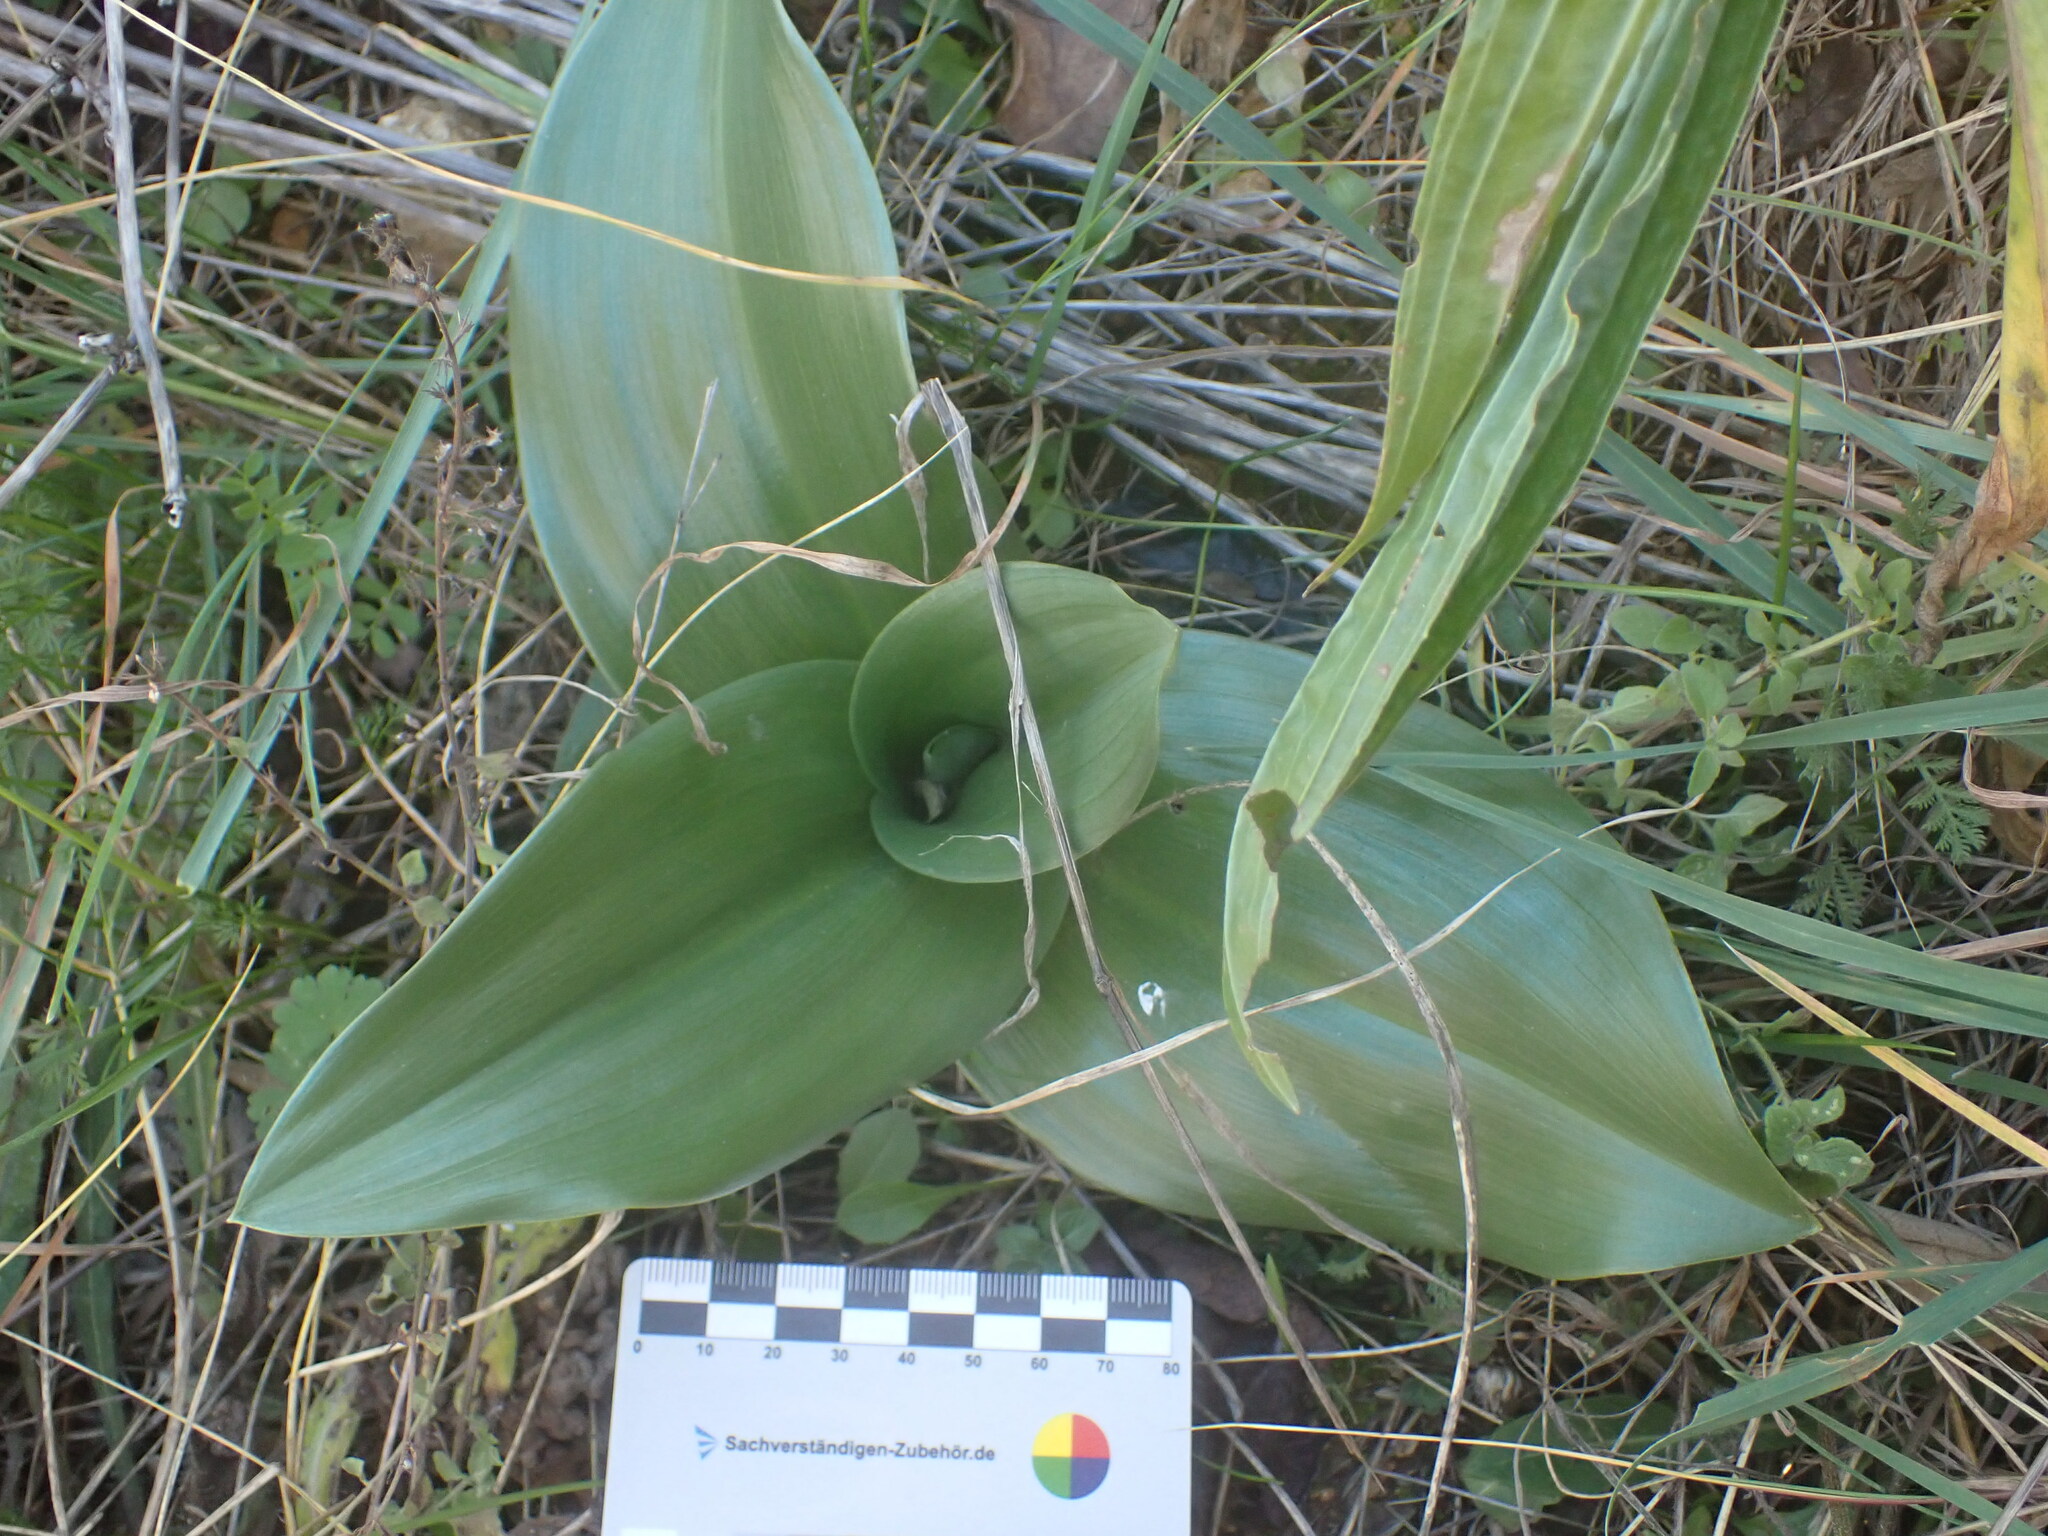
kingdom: Plantae
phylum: Tracheophyta
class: Liliopsida
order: Asparagales
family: Orchidaceae
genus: Himantoglossum
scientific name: Himantoglossum robertianum
